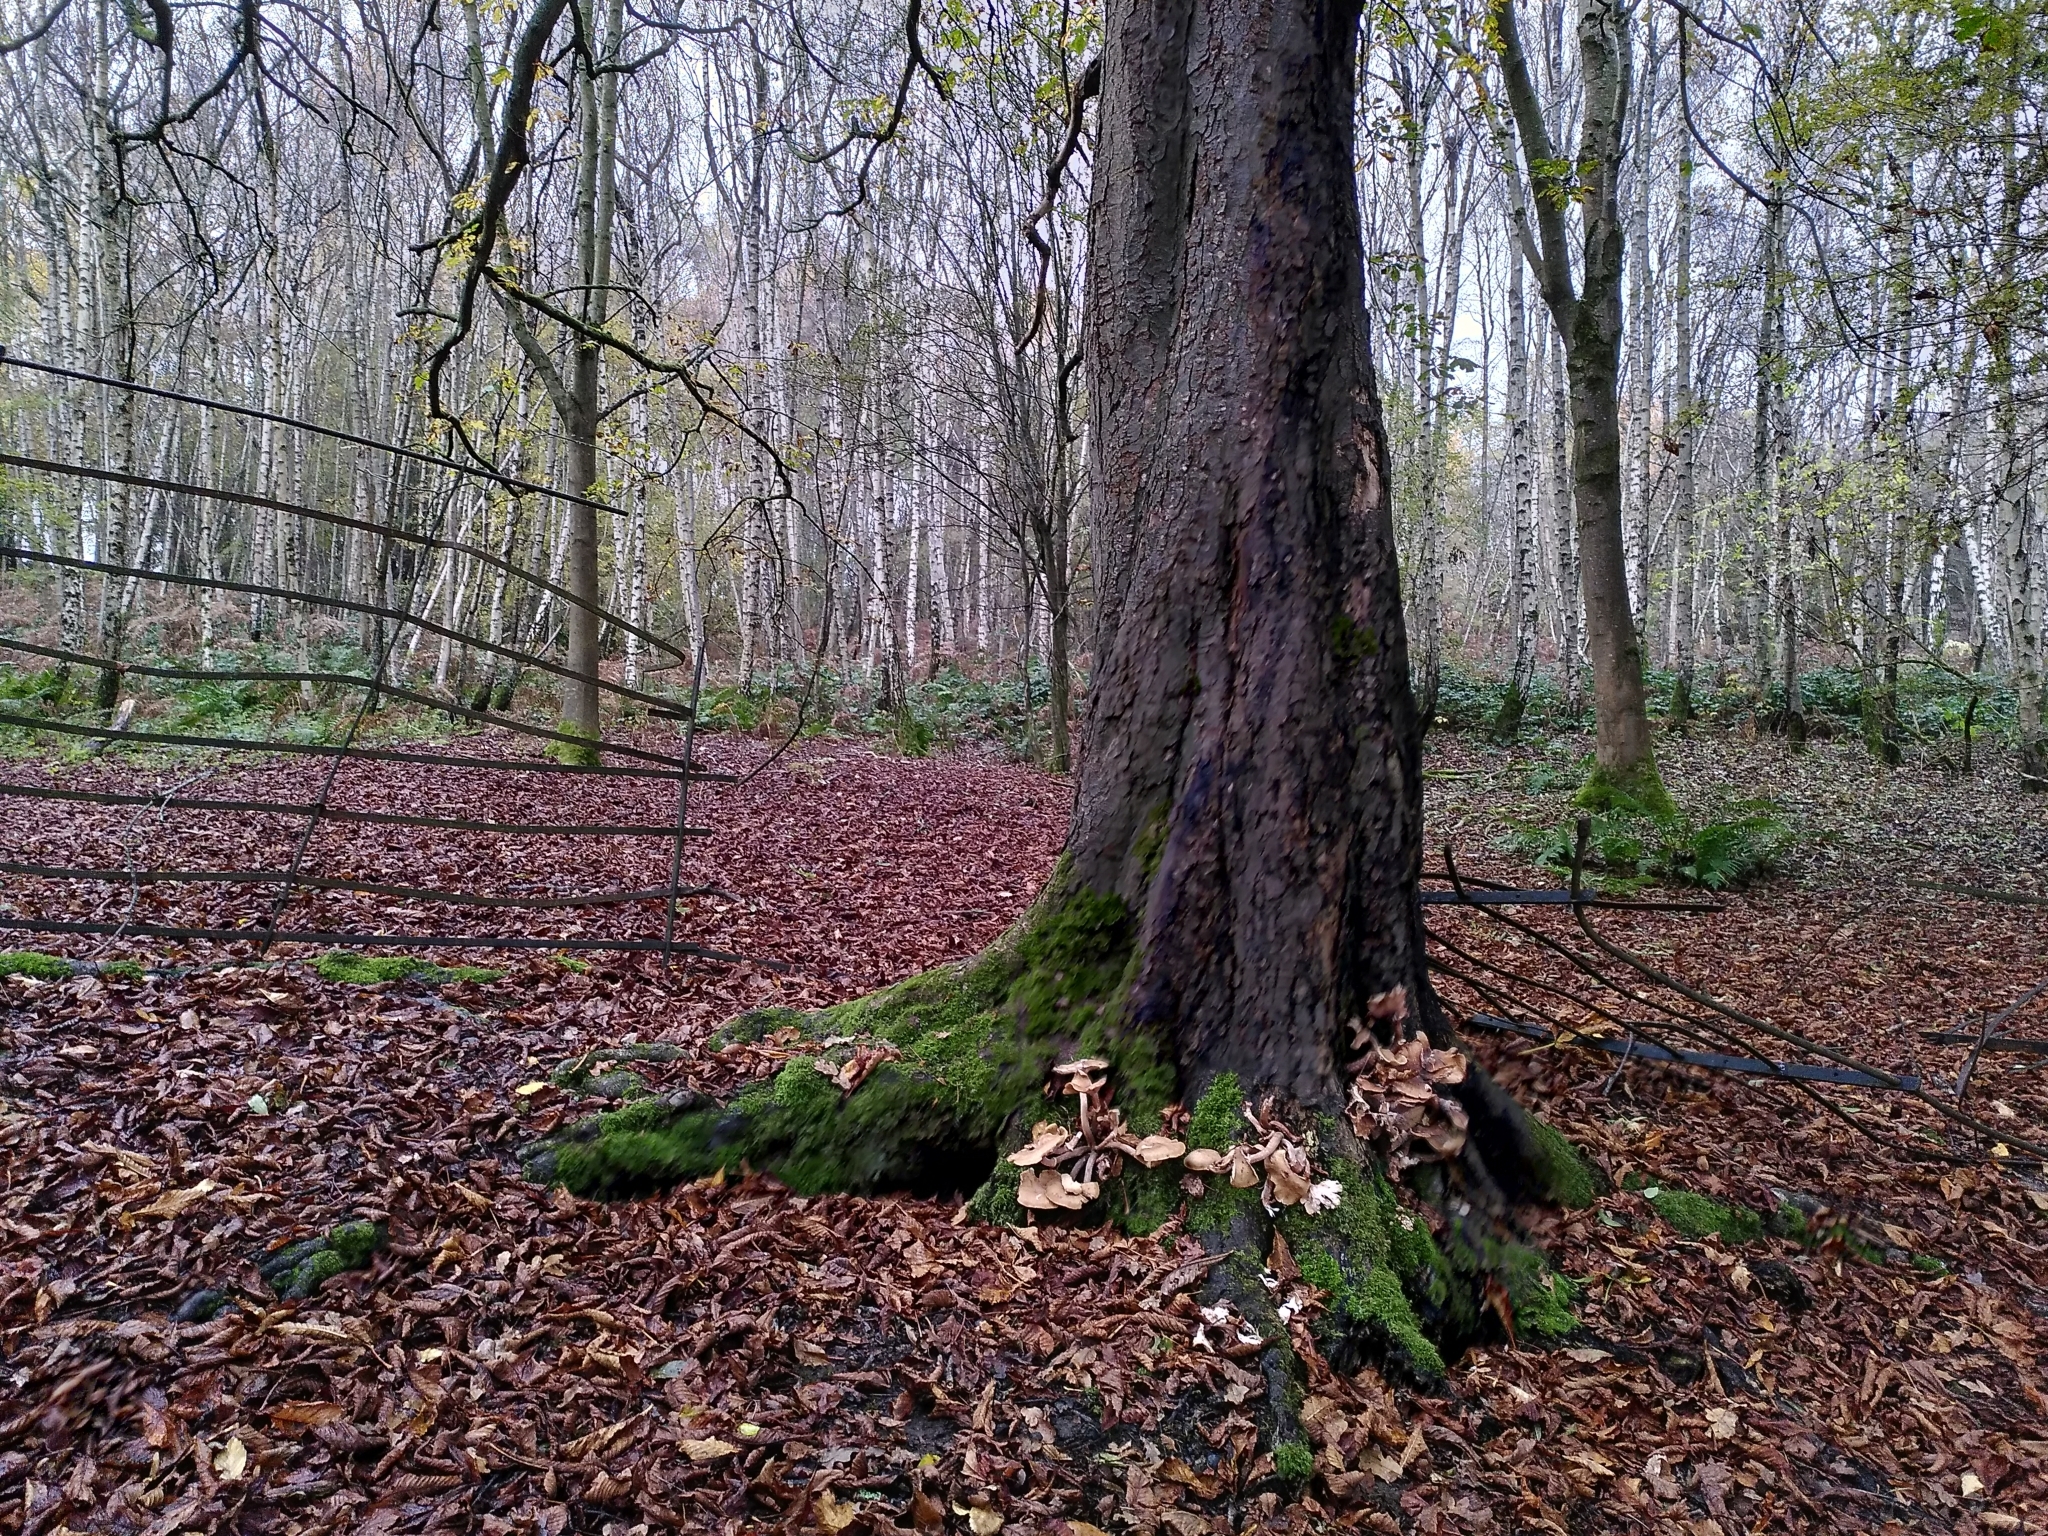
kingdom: Fungi
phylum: Basidiomycota
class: Agaricomycetes
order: Agaricales
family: Physalacriaceae
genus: Armillaria
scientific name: Armillaria mellea
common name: Honey fungus
